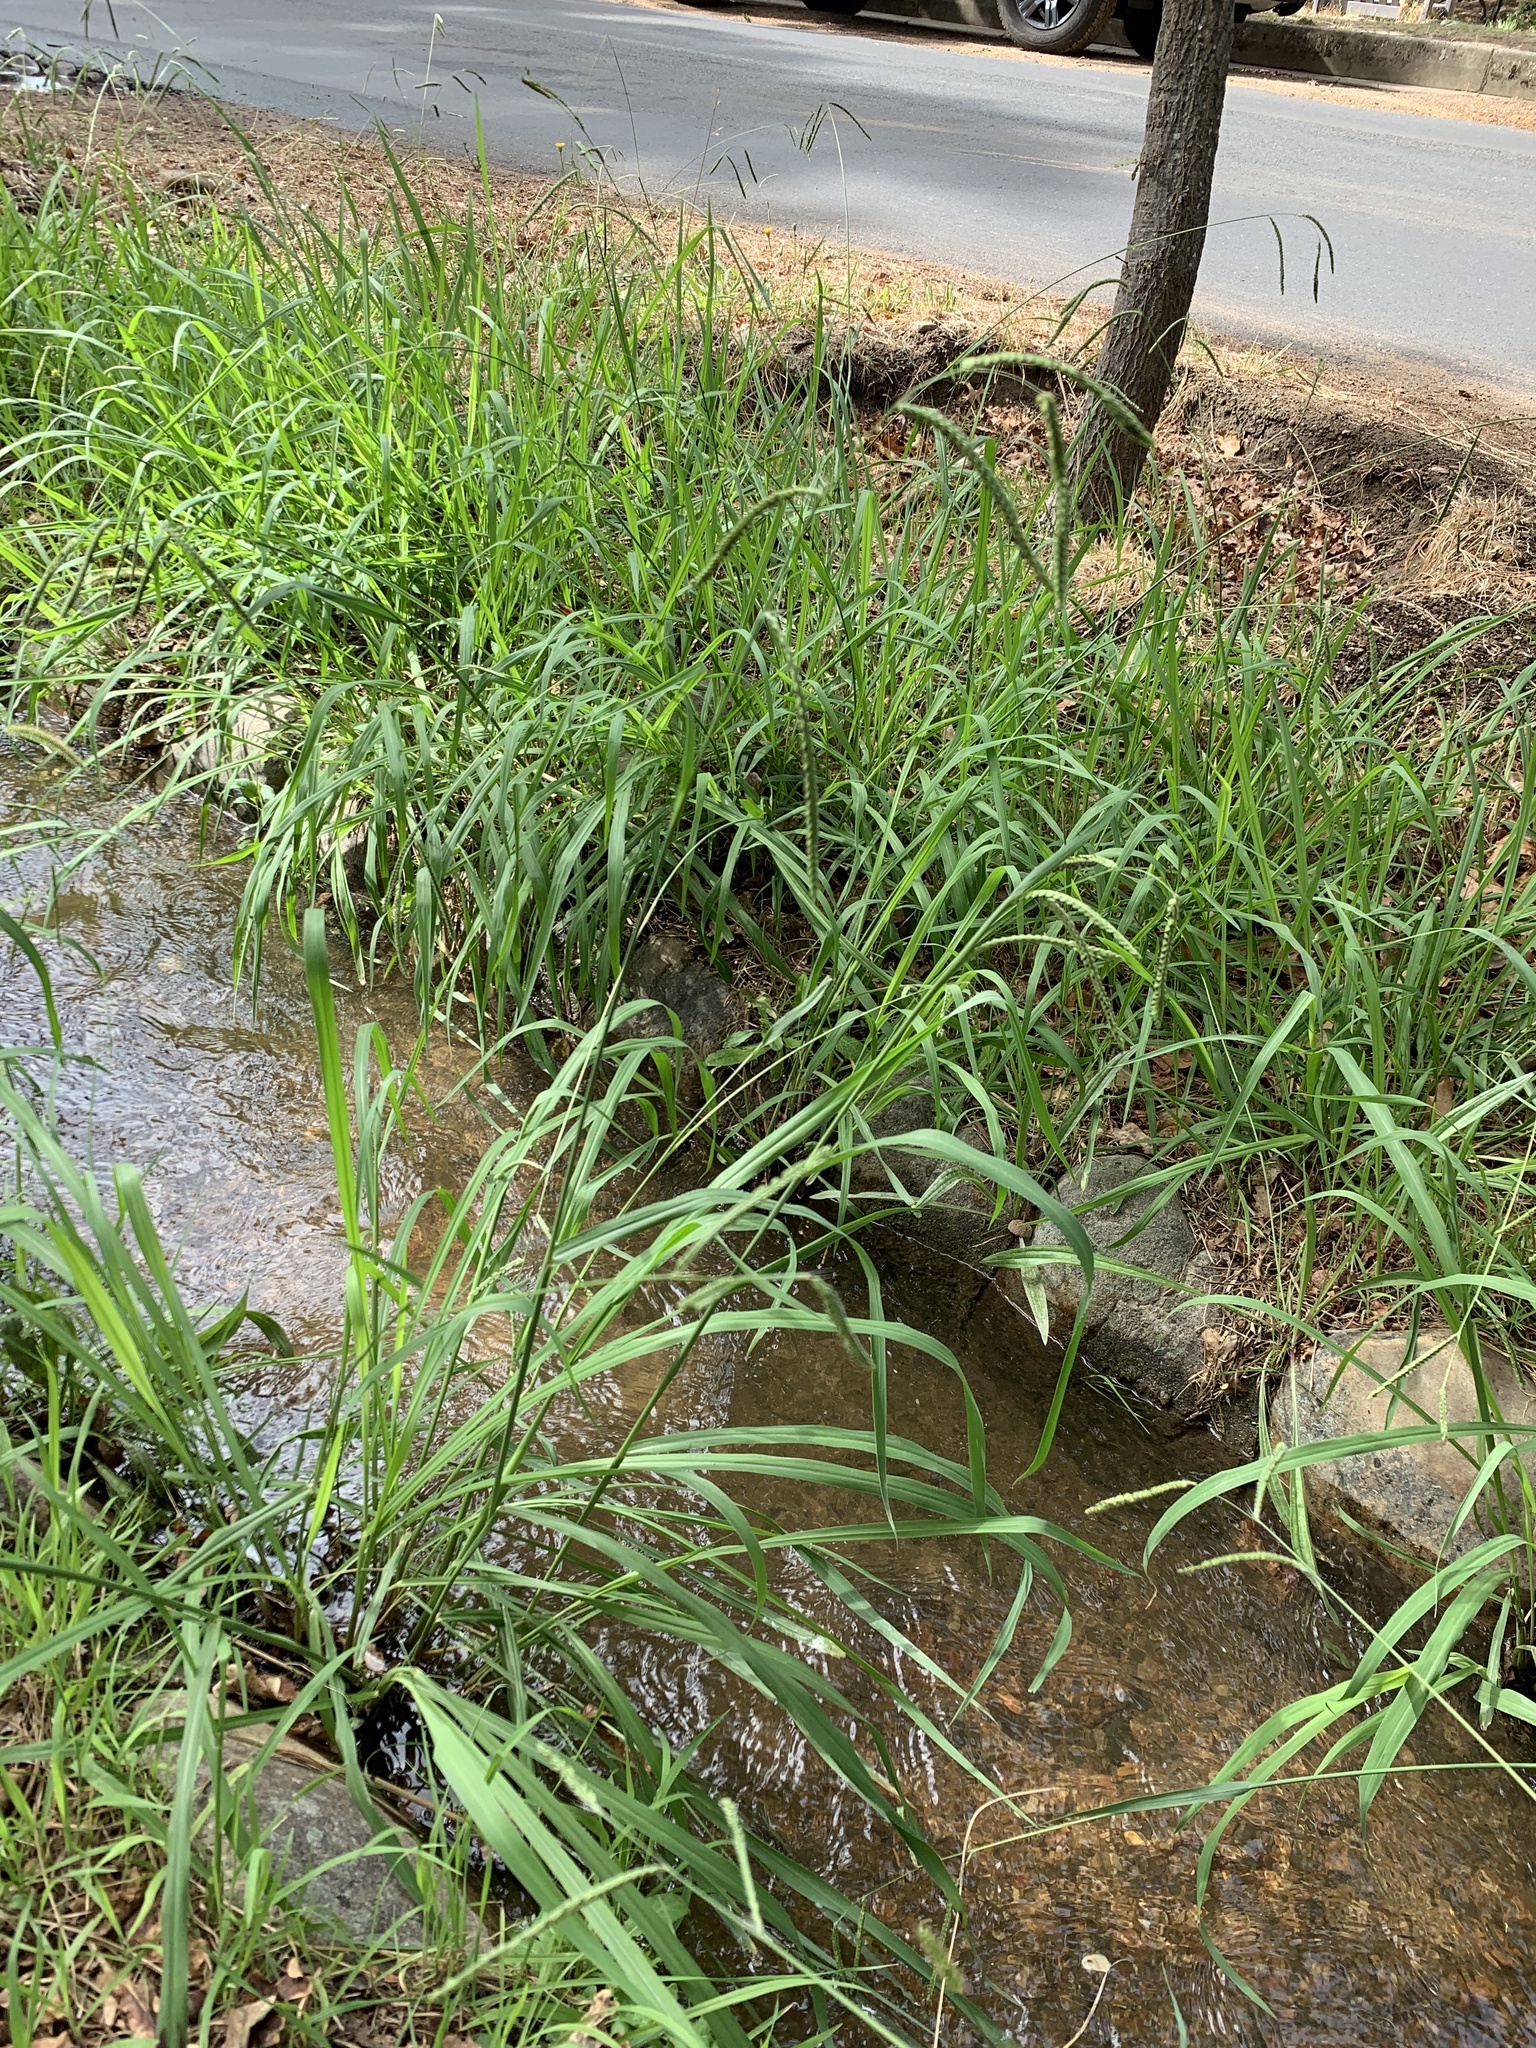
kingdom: Plantae
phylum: Tracheophyta
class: Liliopsida
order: Poales
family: Poaceae
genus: Paspalum
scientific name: Paspalum dilatatum
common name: Dallisgrass
